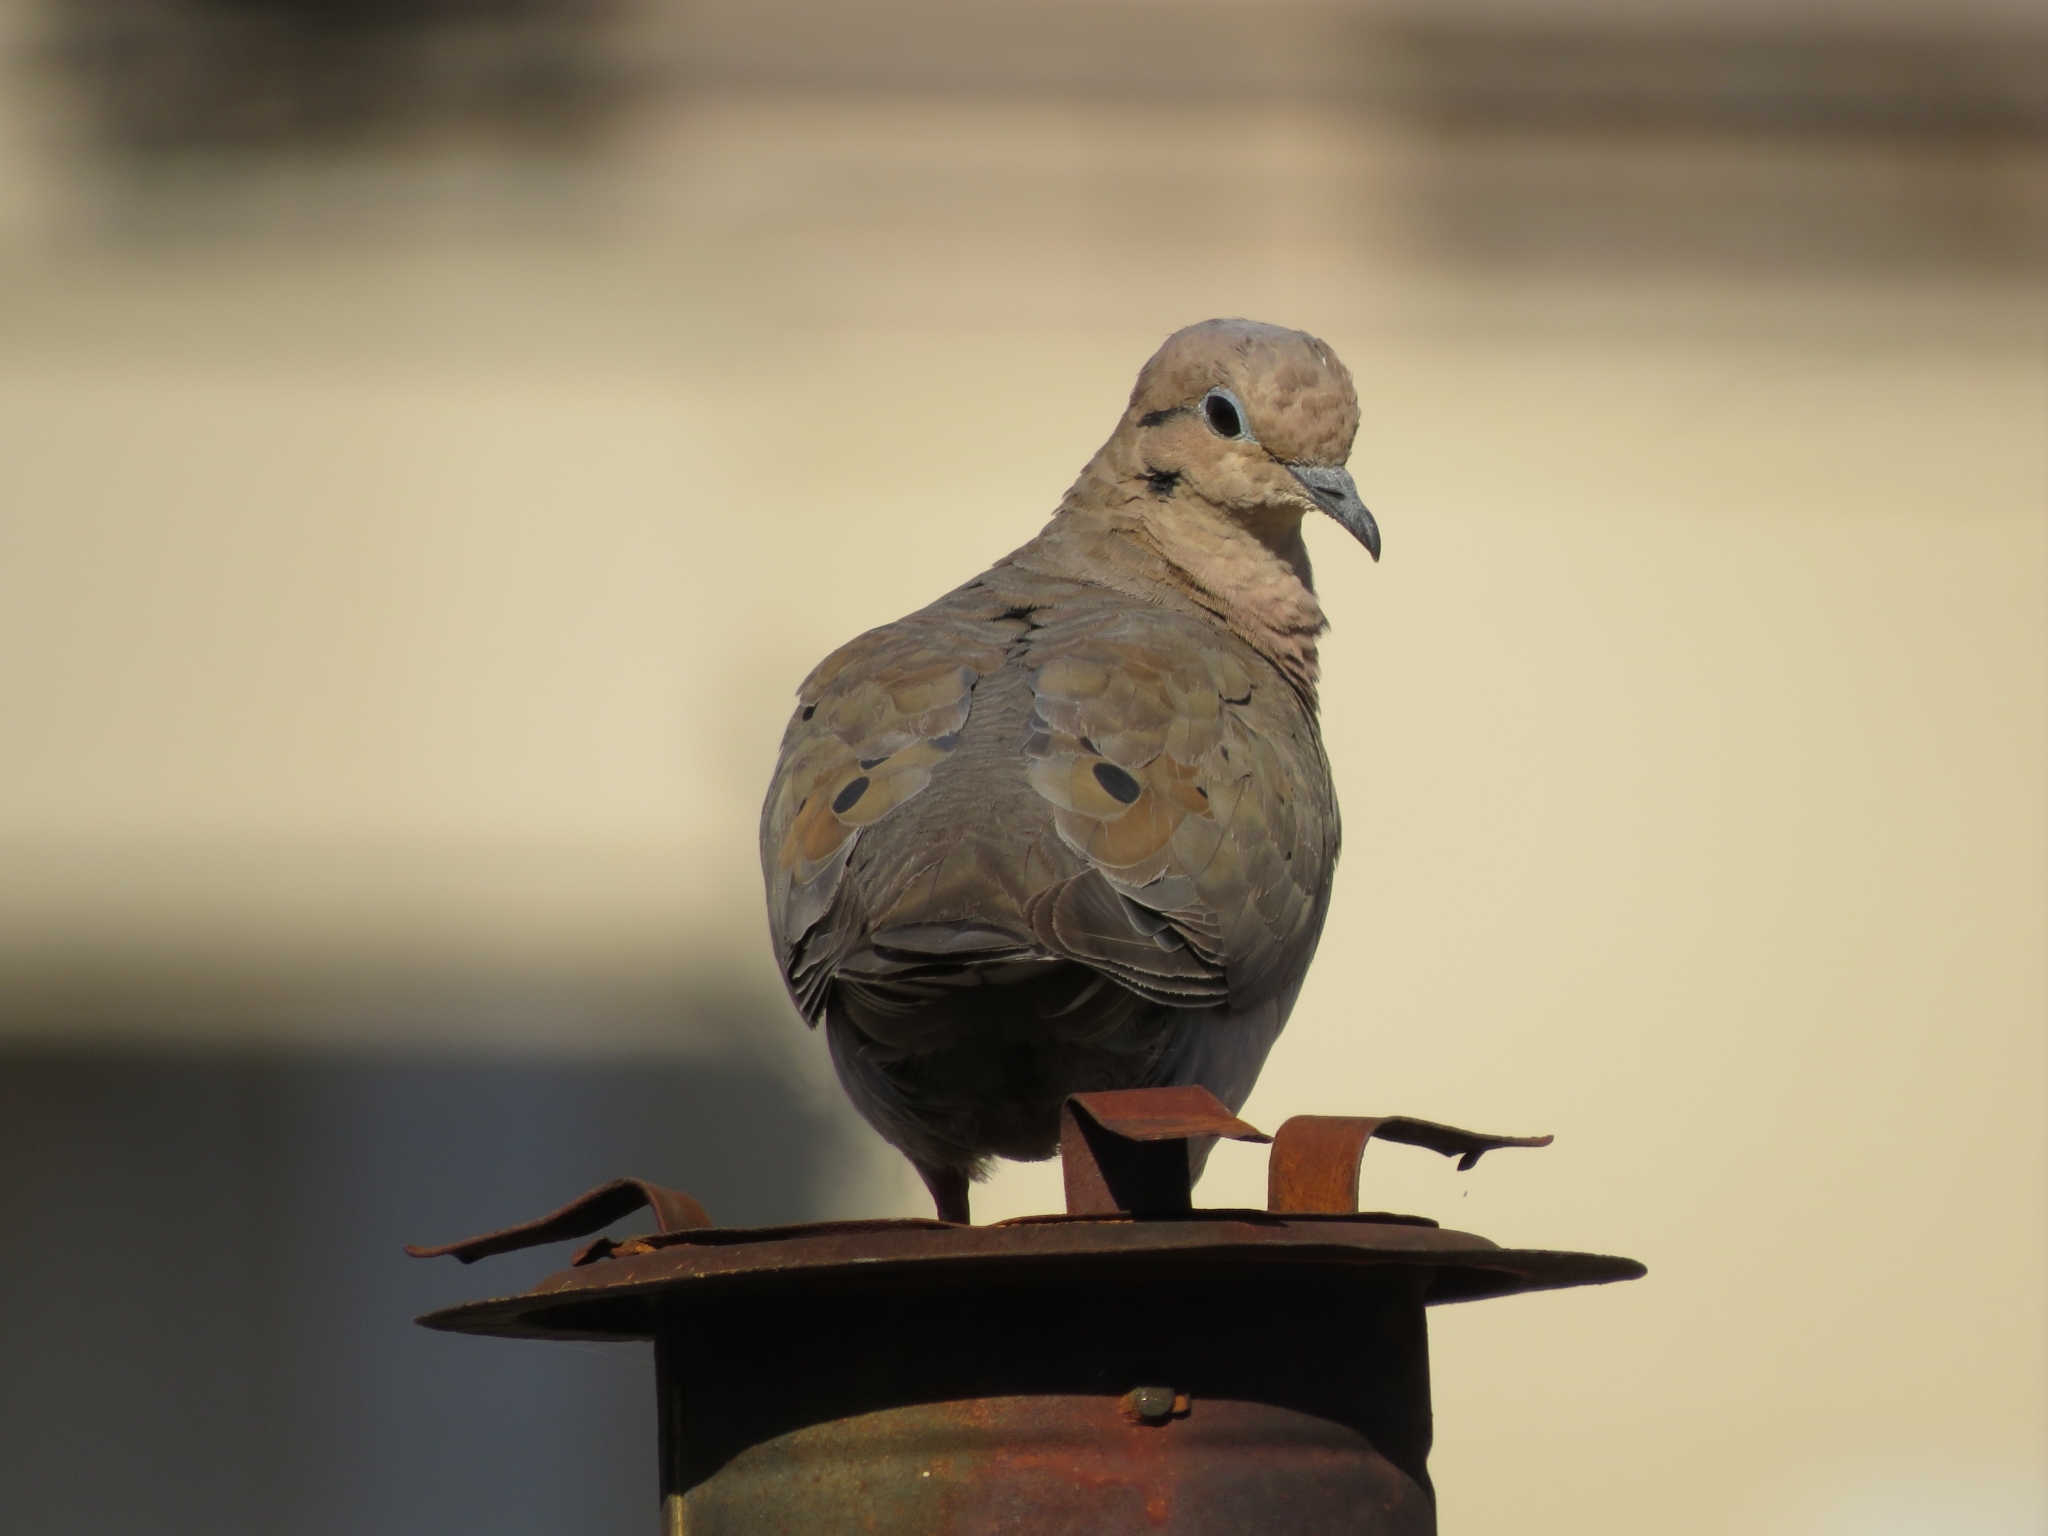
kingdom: Animalia
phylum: Chordata
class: Aves
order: Columbiformes
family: Columbidae
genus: Zenaida
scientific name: Zenaida auriculata
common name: Eared dove
